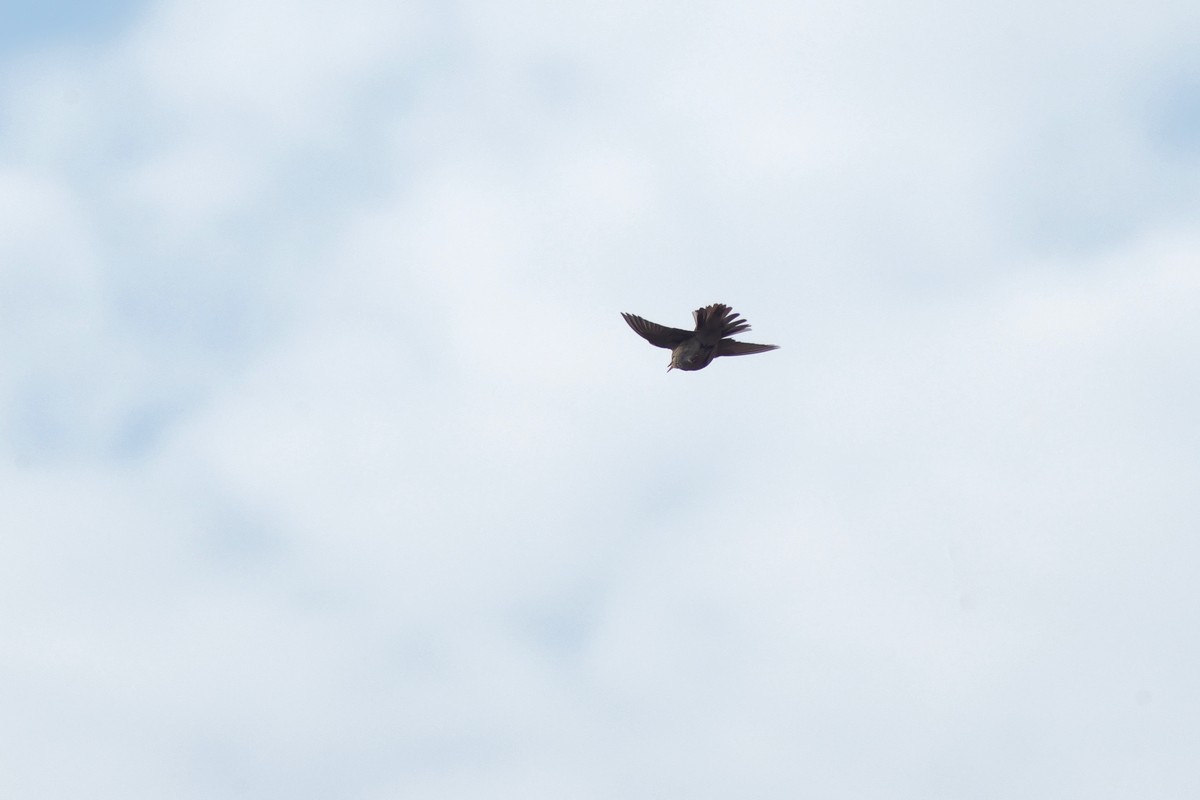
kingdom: Animalia
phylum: Chordata
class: Aves
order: Passeriformes
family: Motacillidae
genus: Anthus
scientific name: Anthus trivialis
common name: Tree pipit
